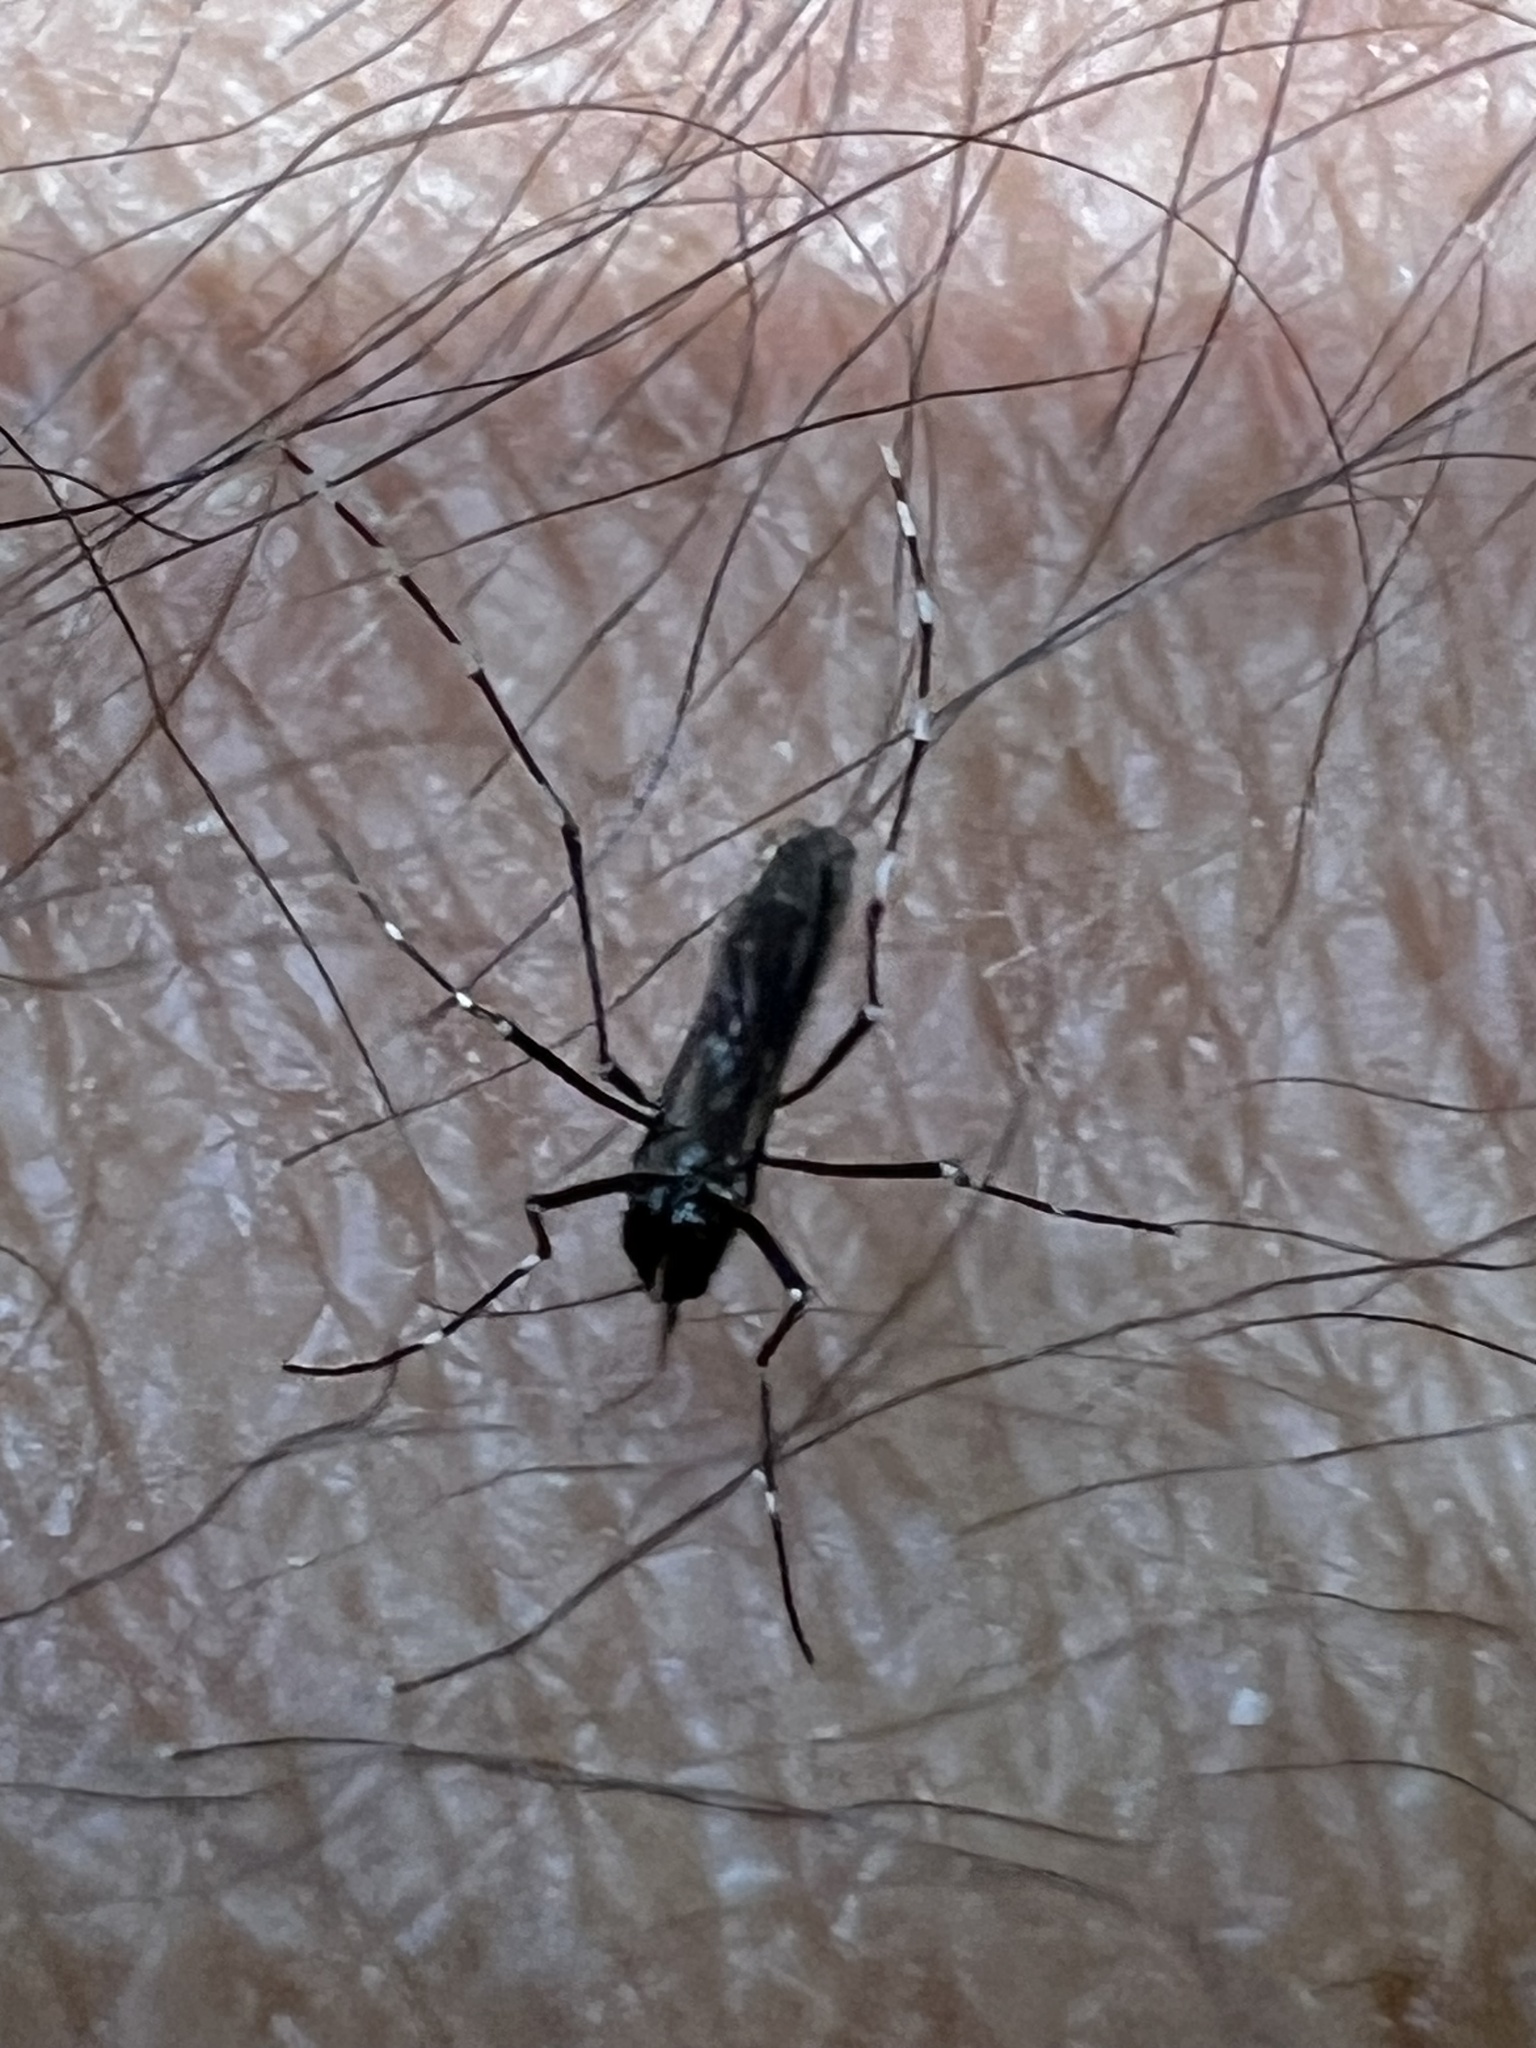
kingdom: Animalia
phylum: Arthropoda
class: Insecta
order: Diptera
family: Culicidae
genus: Aedes
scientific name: Aedes albopictus
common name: Tiger mosquito
